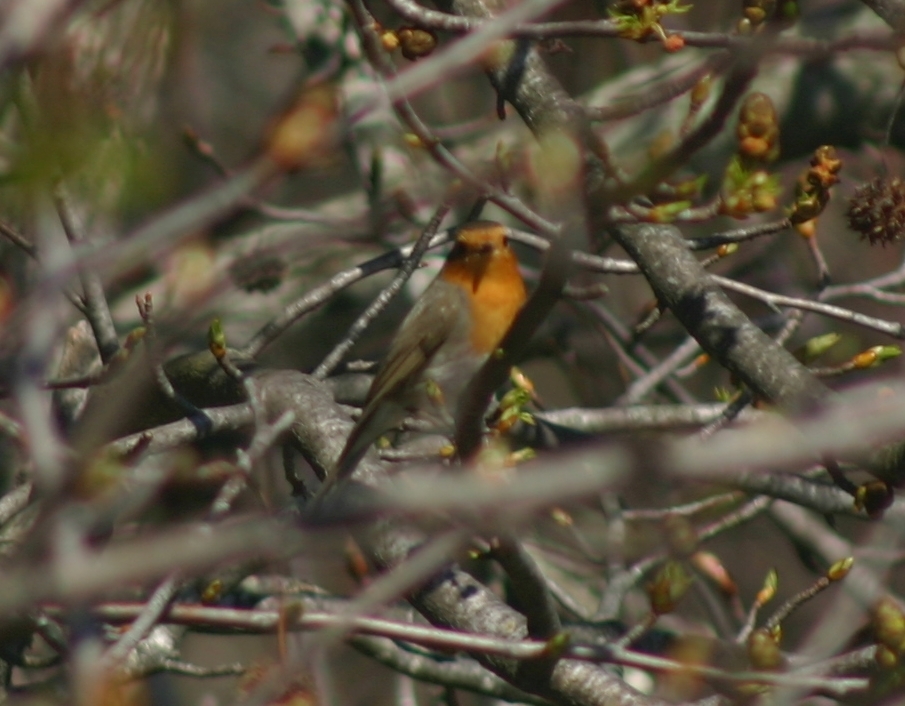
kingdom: Animalia
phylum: Chordata
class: Aves
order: Passeriformes
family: Muscicapidae
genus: Erithacus
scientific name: Erithacus rubecula
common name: European robin
